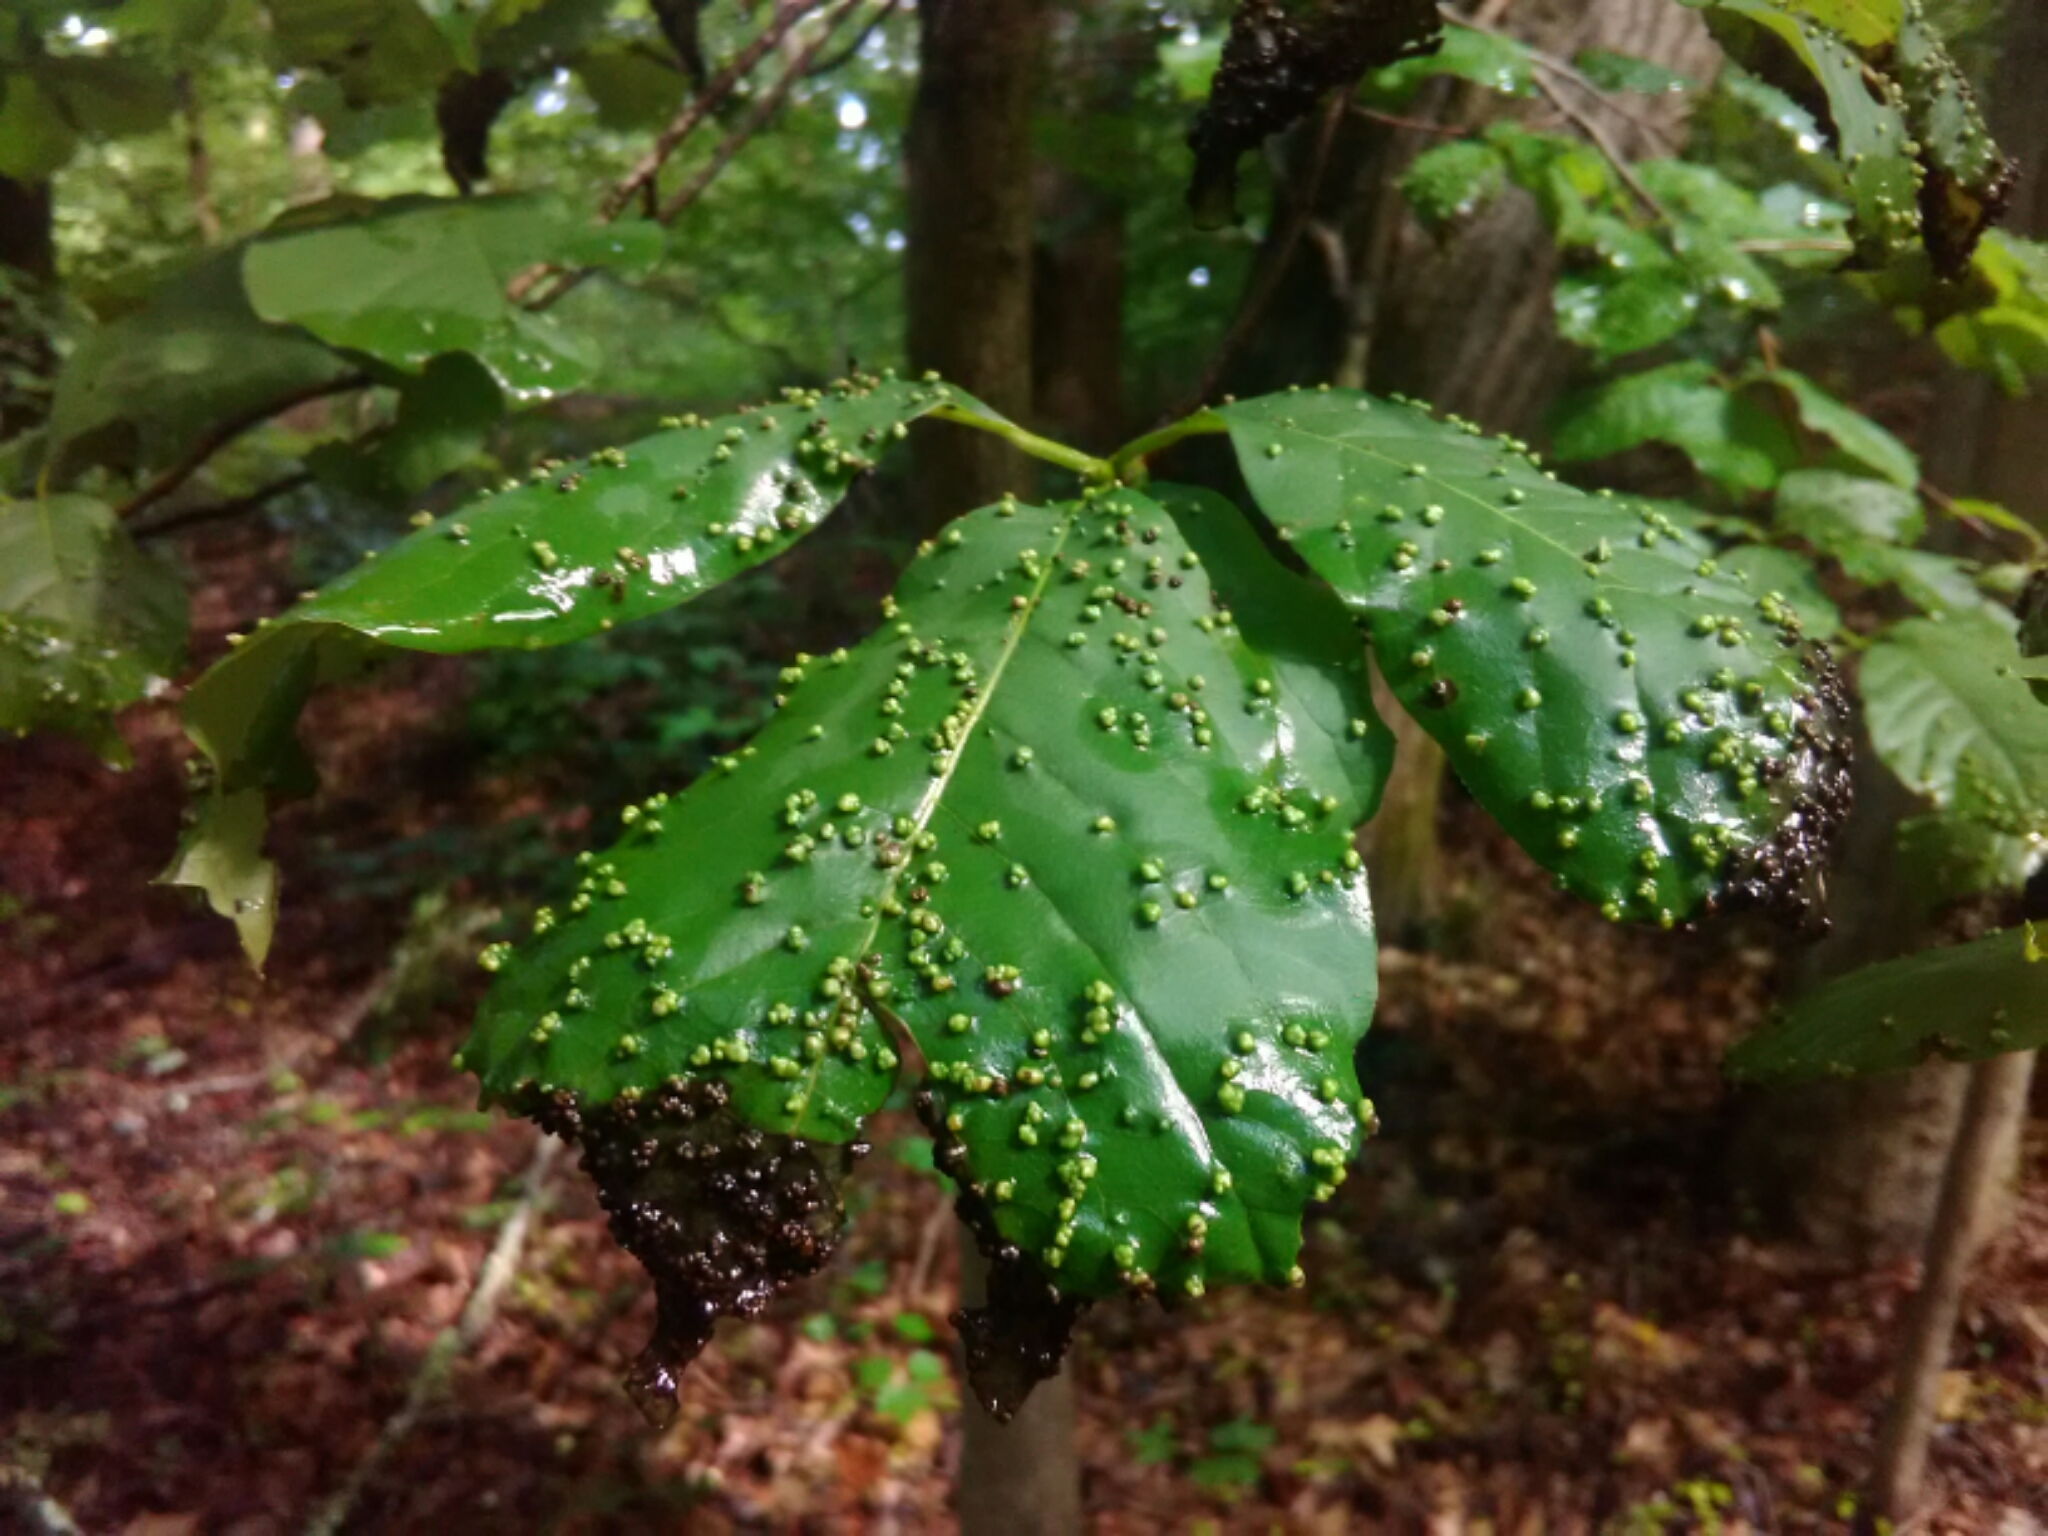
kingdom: Animalia
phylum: Arthropoda
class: Arachnida
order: Trombidiformes
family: Eriophyidae
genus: Aceria
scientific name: Aceria
